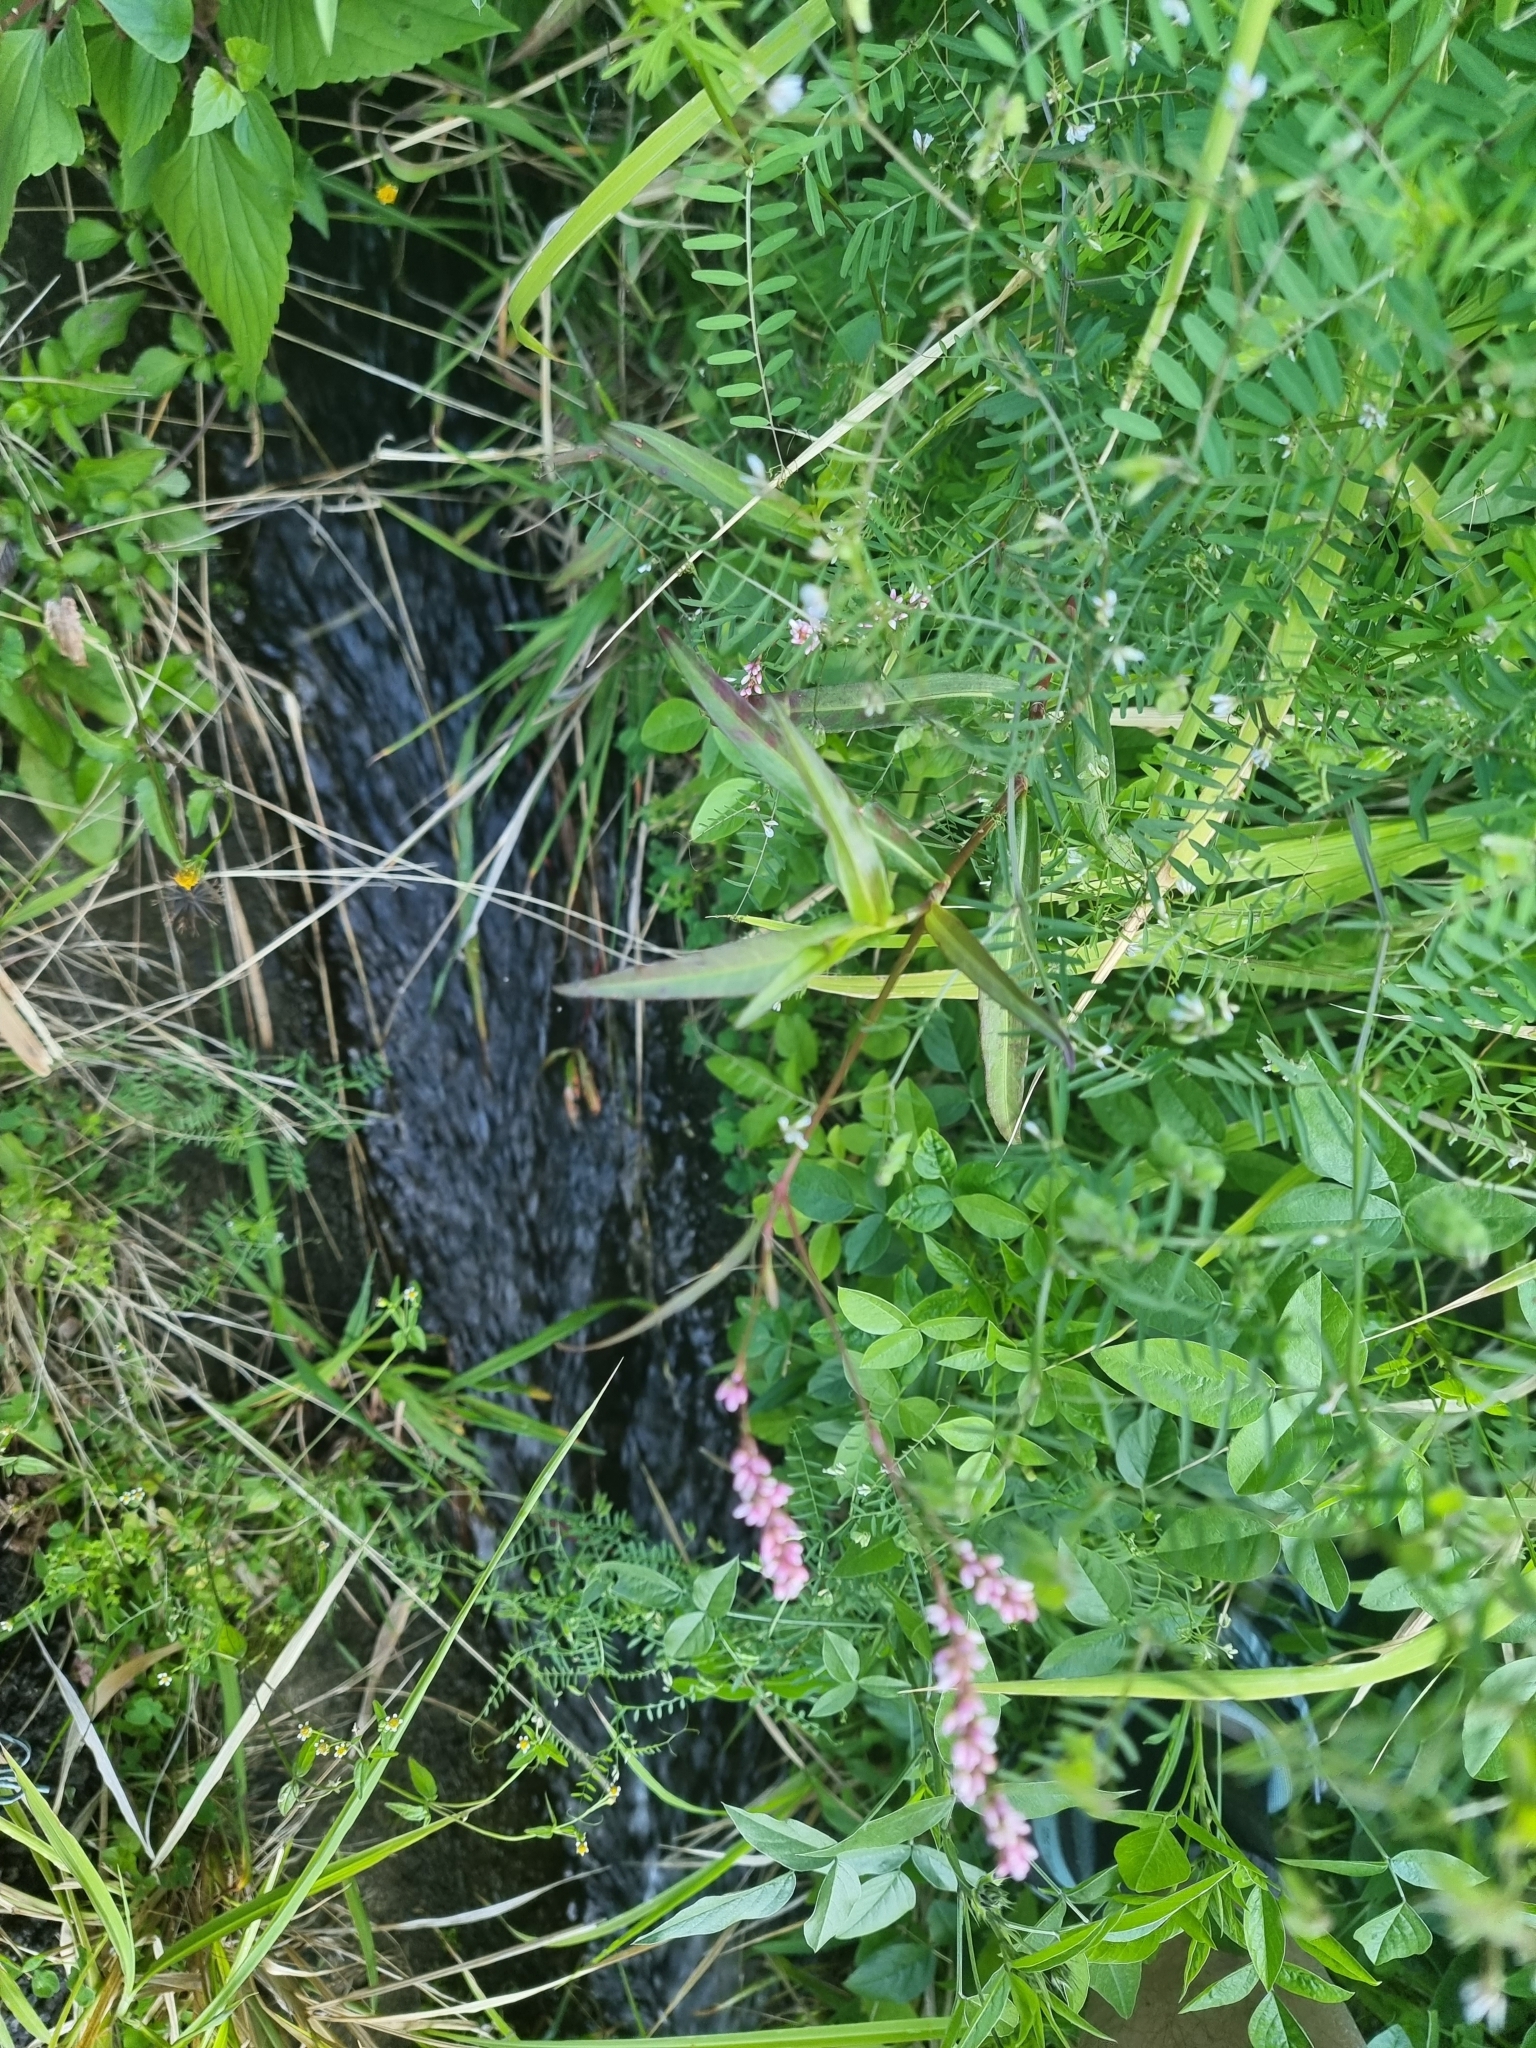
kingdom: Plantae
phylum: Tracheophyta
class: Magnoliopsida
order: Caryophyllales
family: Polygonaceae
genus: Persicaria
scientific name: Persicaria decipiens
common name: Willow-weed
